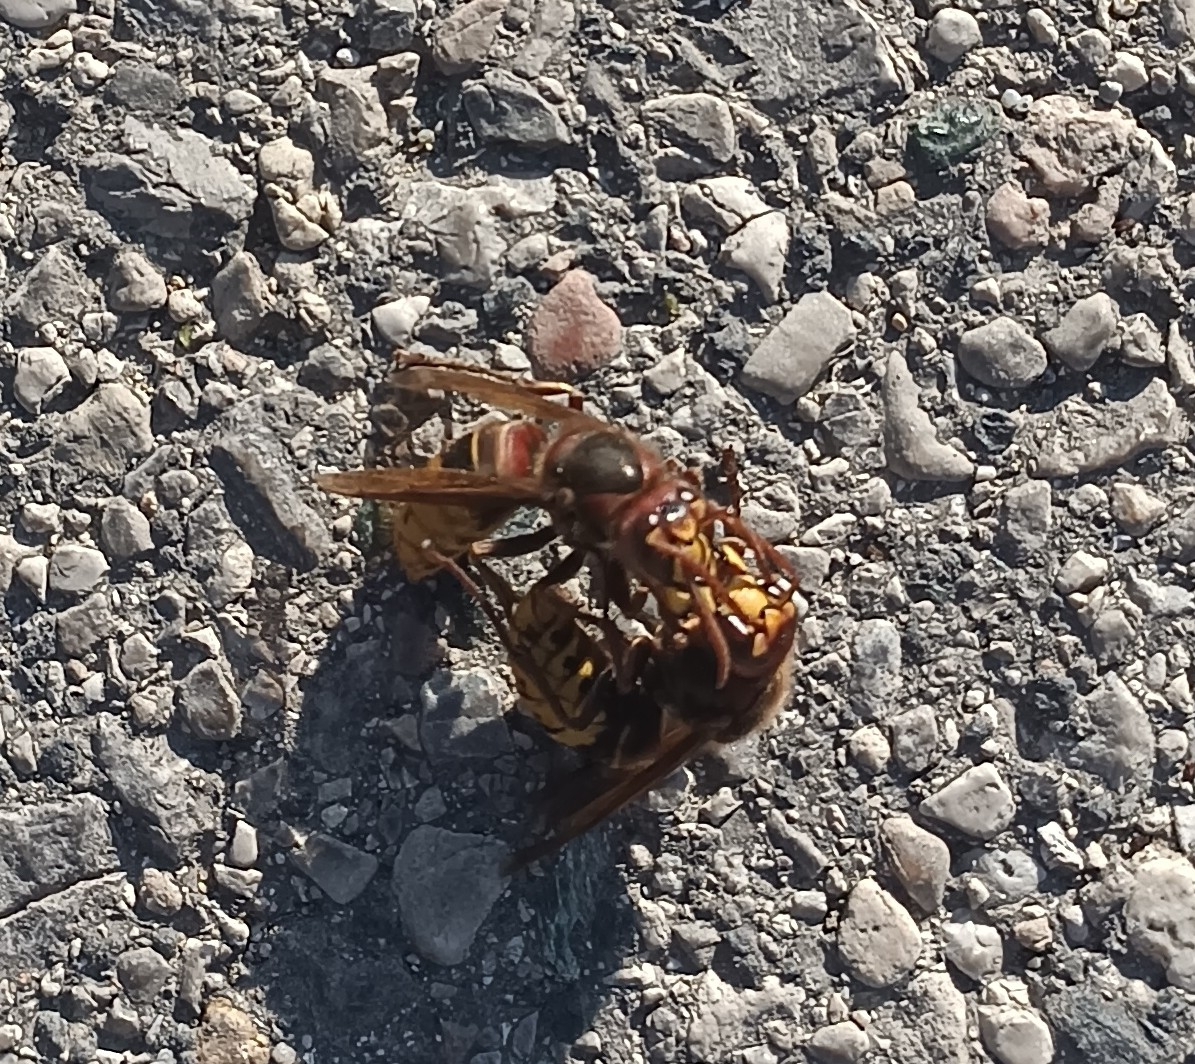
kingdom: Animalia
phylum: Arthropoda
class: Insecta
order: Hymenoptera
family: Vespidae
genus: Vespa
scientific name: Vespa crabro
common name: Hornet
